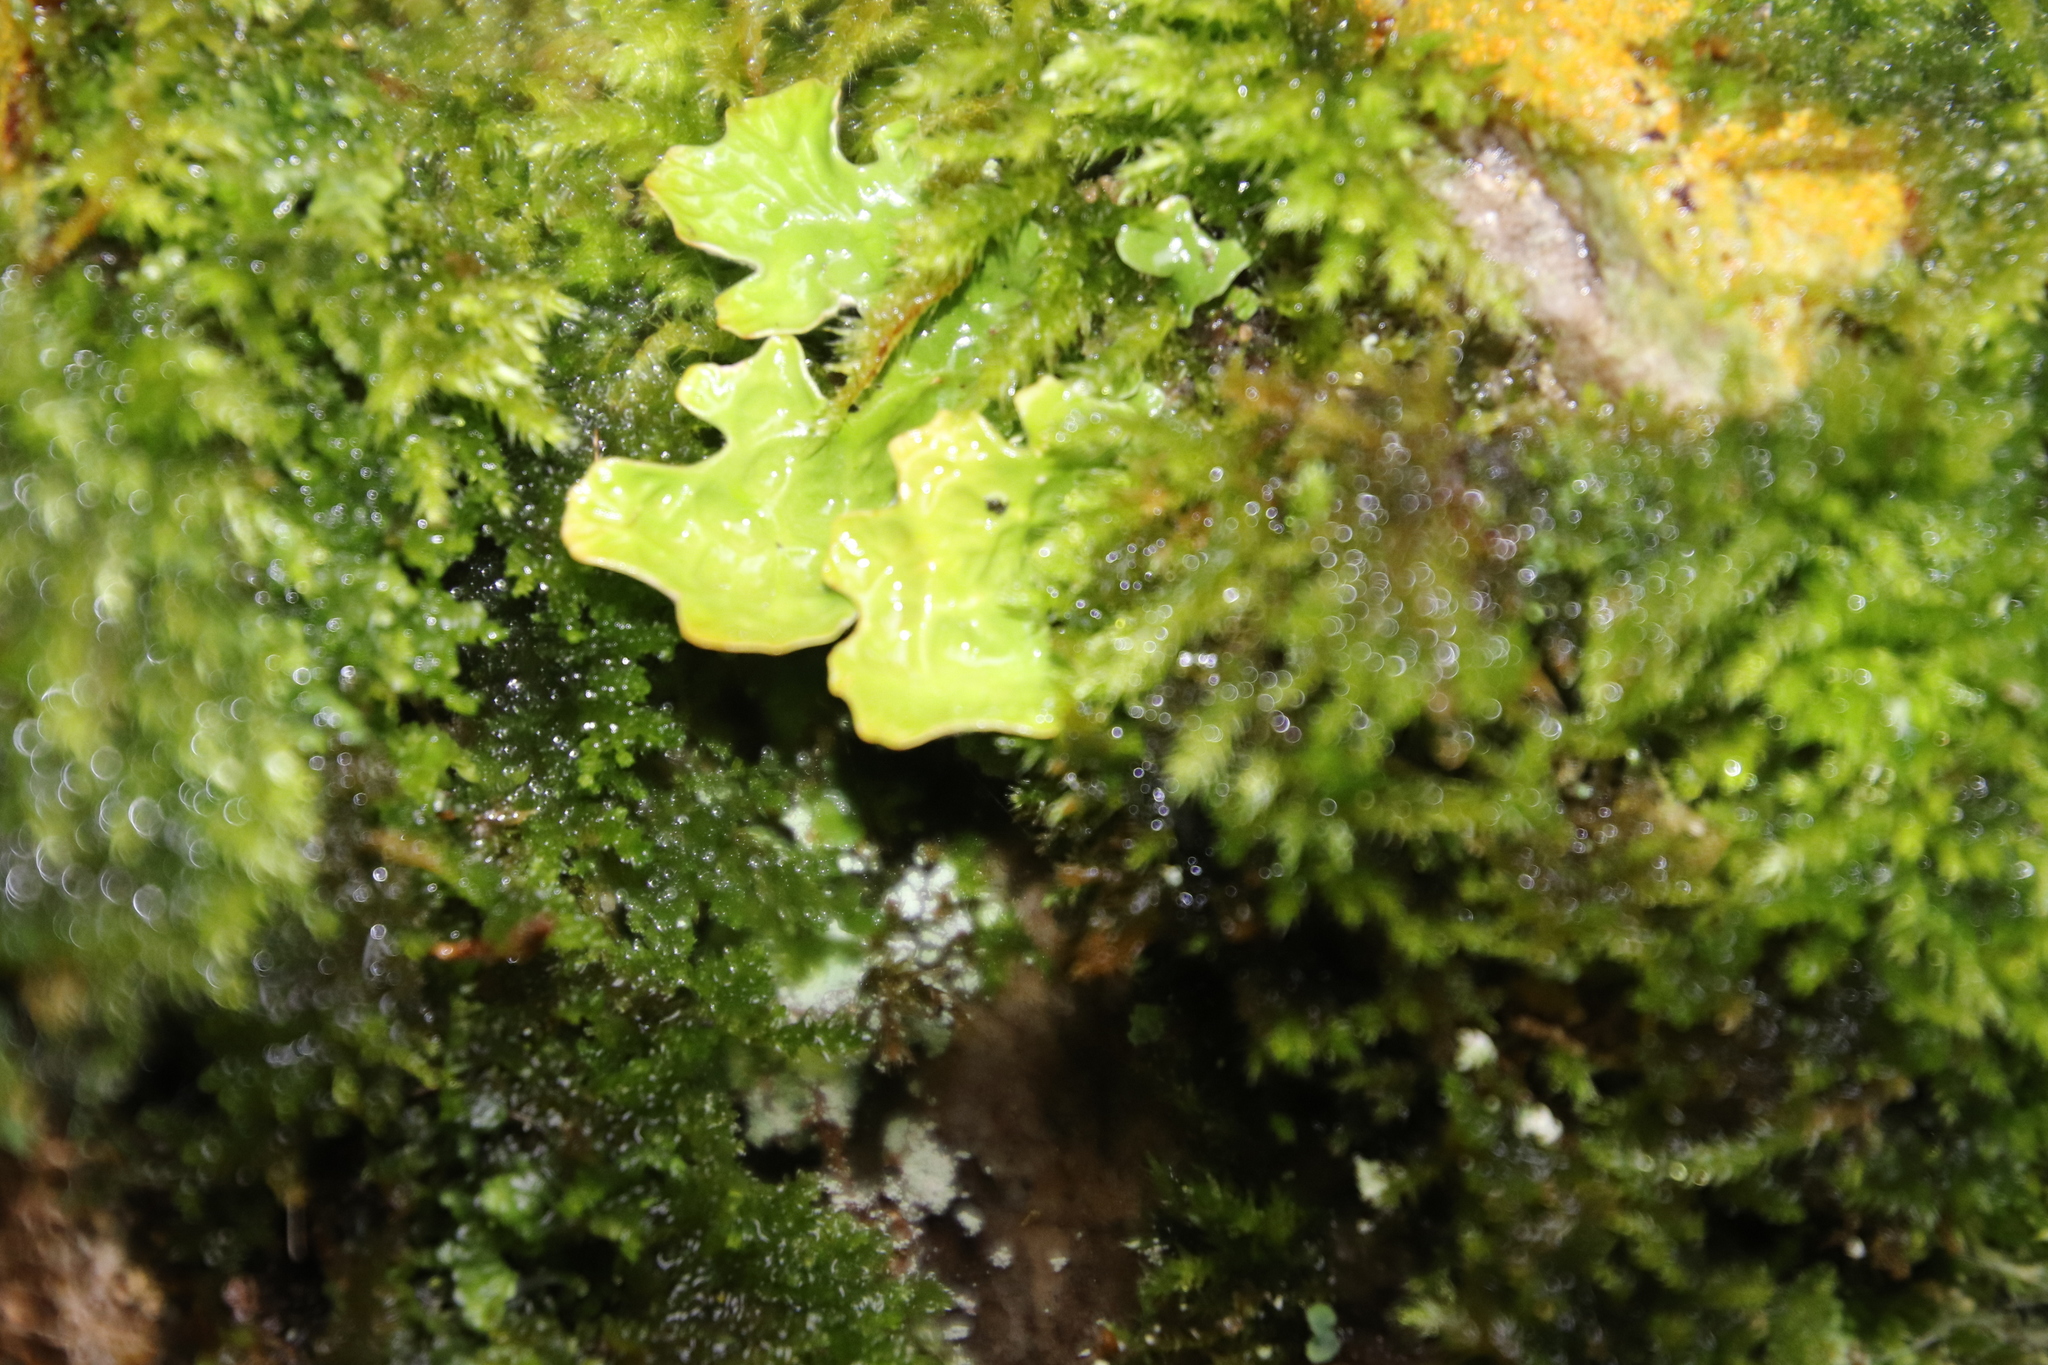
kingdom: Fungi
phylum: Ascomycota
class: Lecanoromycetes
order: Peltigerales
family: Lobariaceae
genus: Lobaria
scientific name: Lobaria pulmonaria
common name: Lungwort
